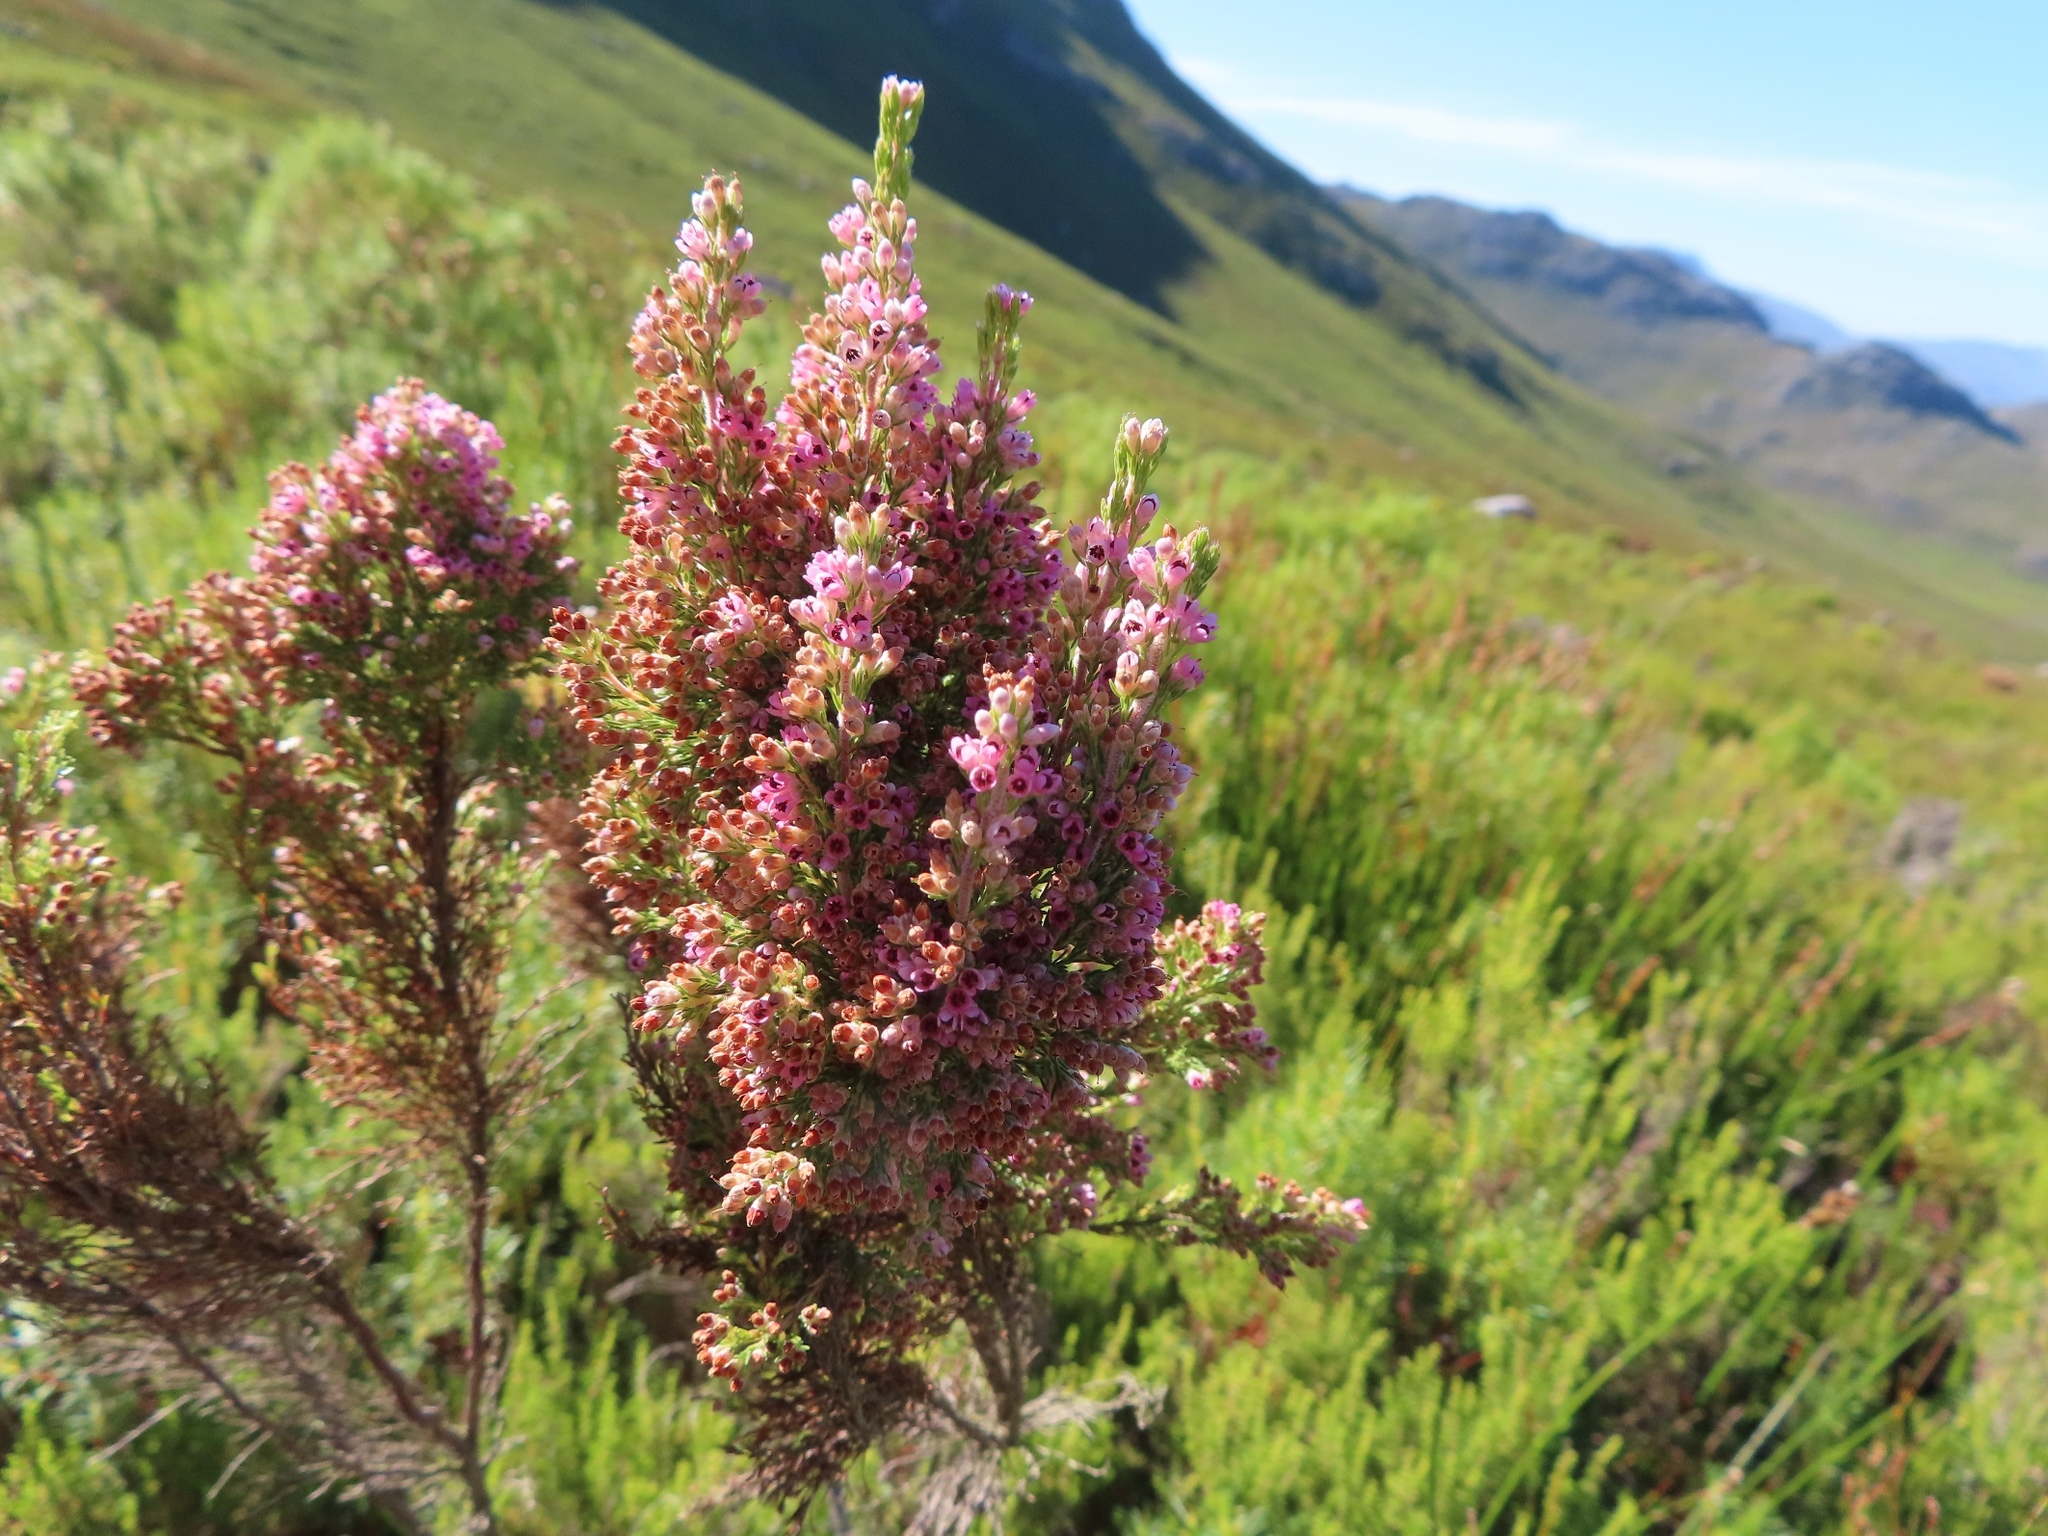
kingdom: Plantae
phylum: Tracheophyta
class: Magnoliopsida
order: Ericales
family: Ericaceae
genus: Erica
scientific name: Erica jacksoniana
